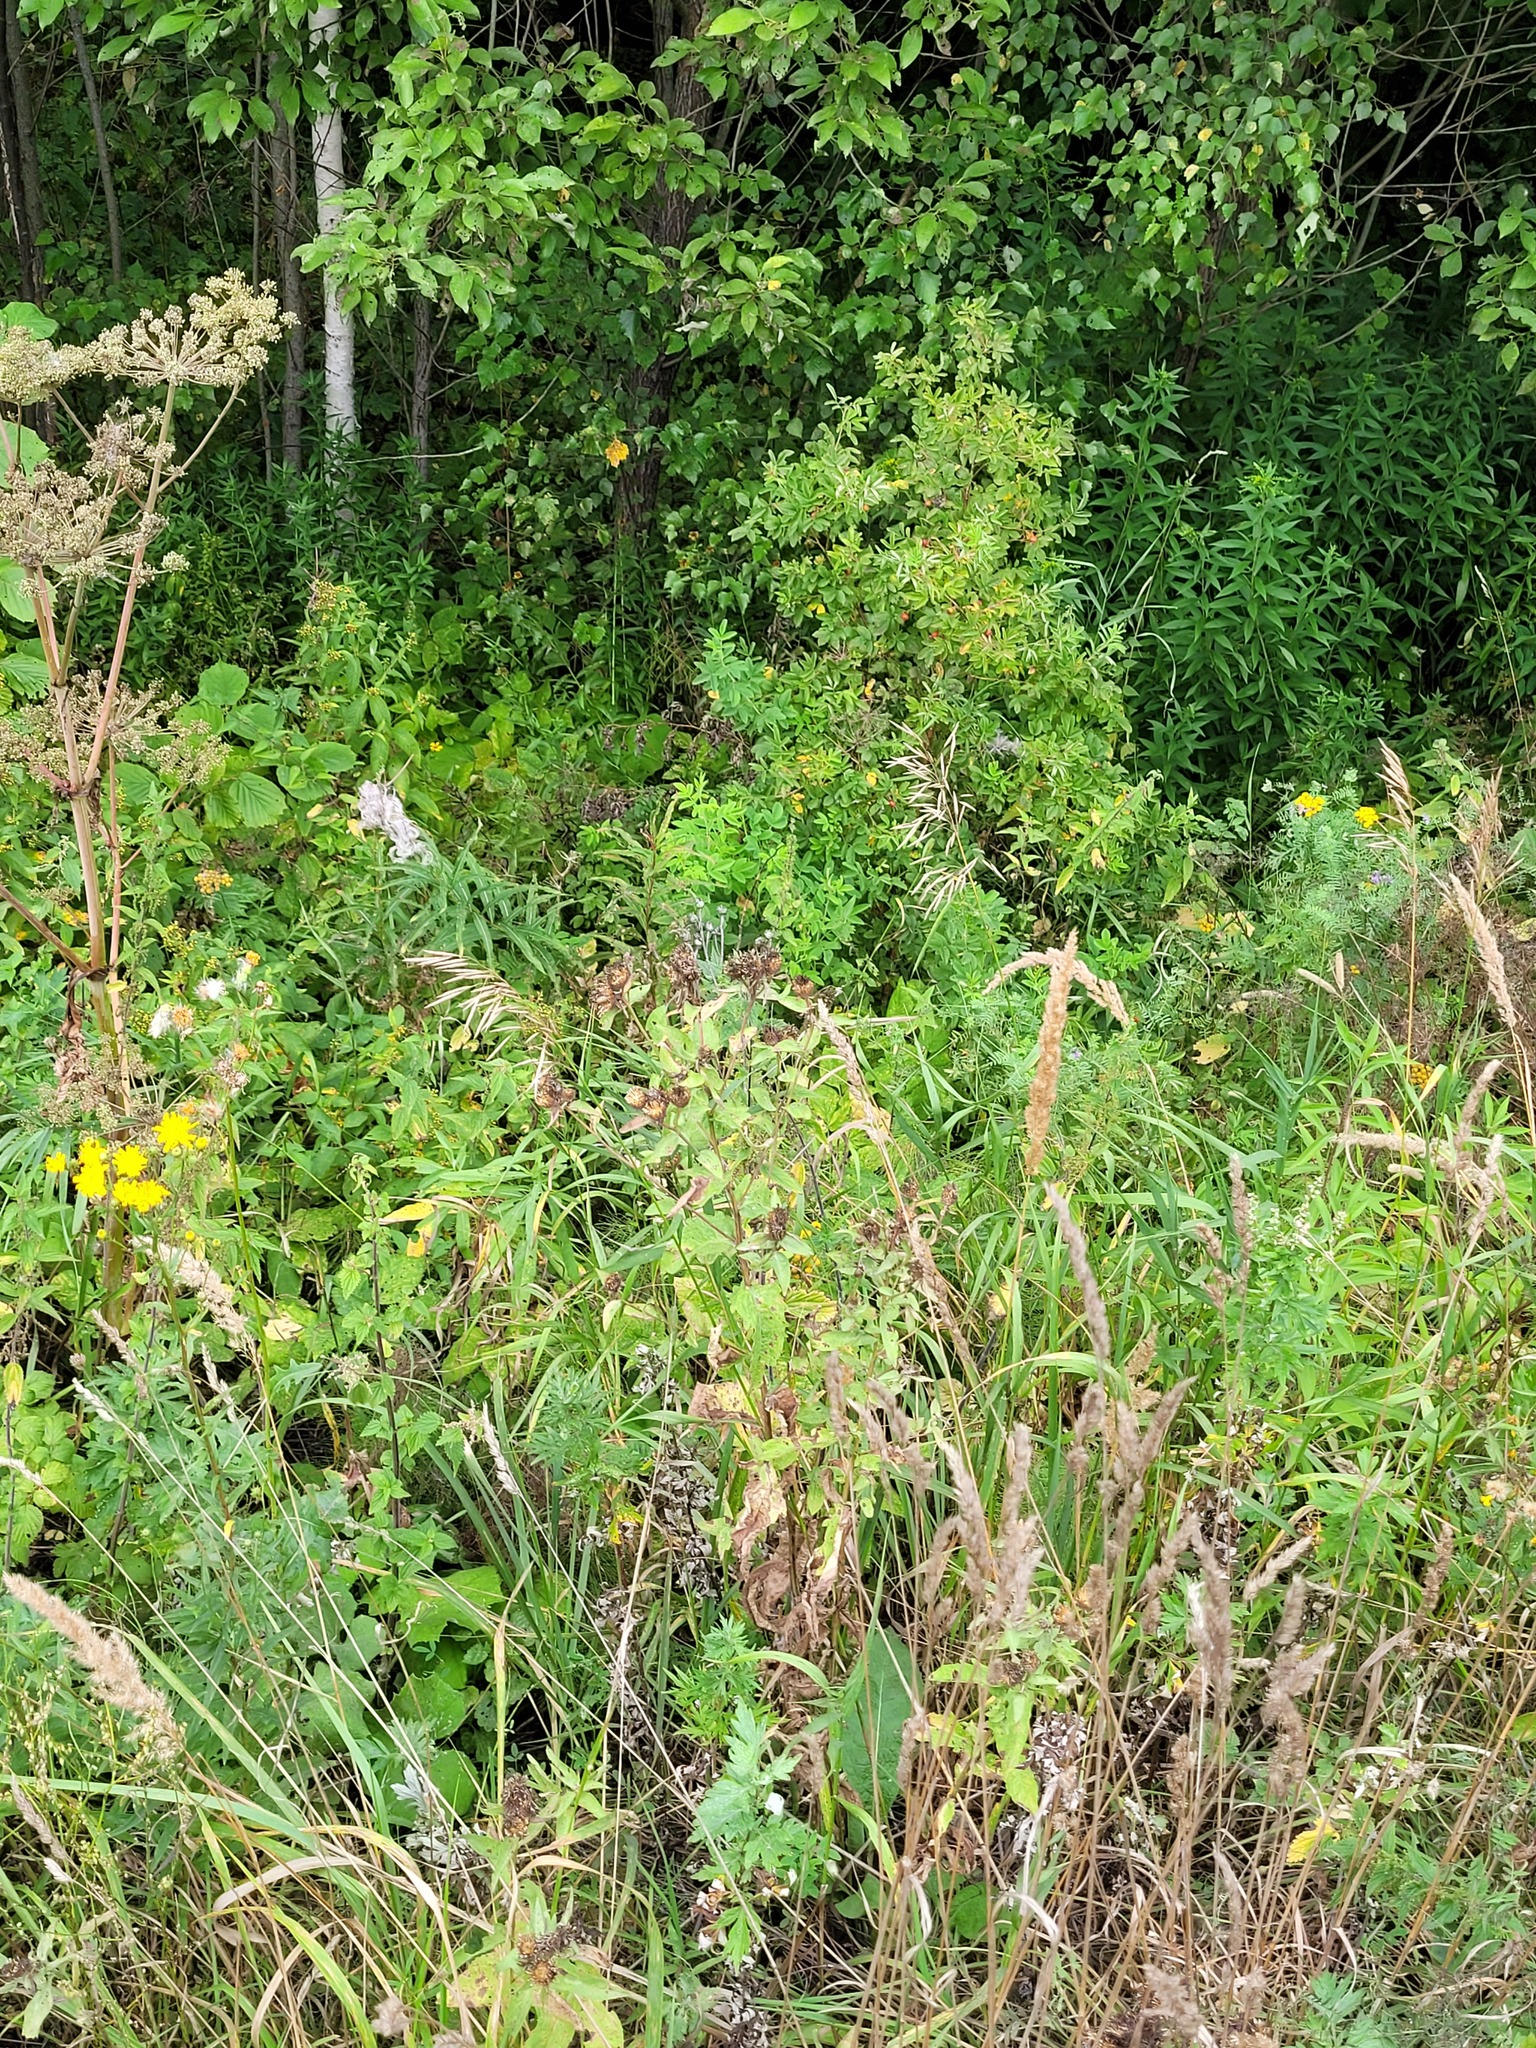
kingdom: Plantae
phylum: Tracheophyta
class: Magnoliopsida
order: Asterales
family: Asteraceae
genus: Centaurea
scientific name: Centaurea pseudophrygia
